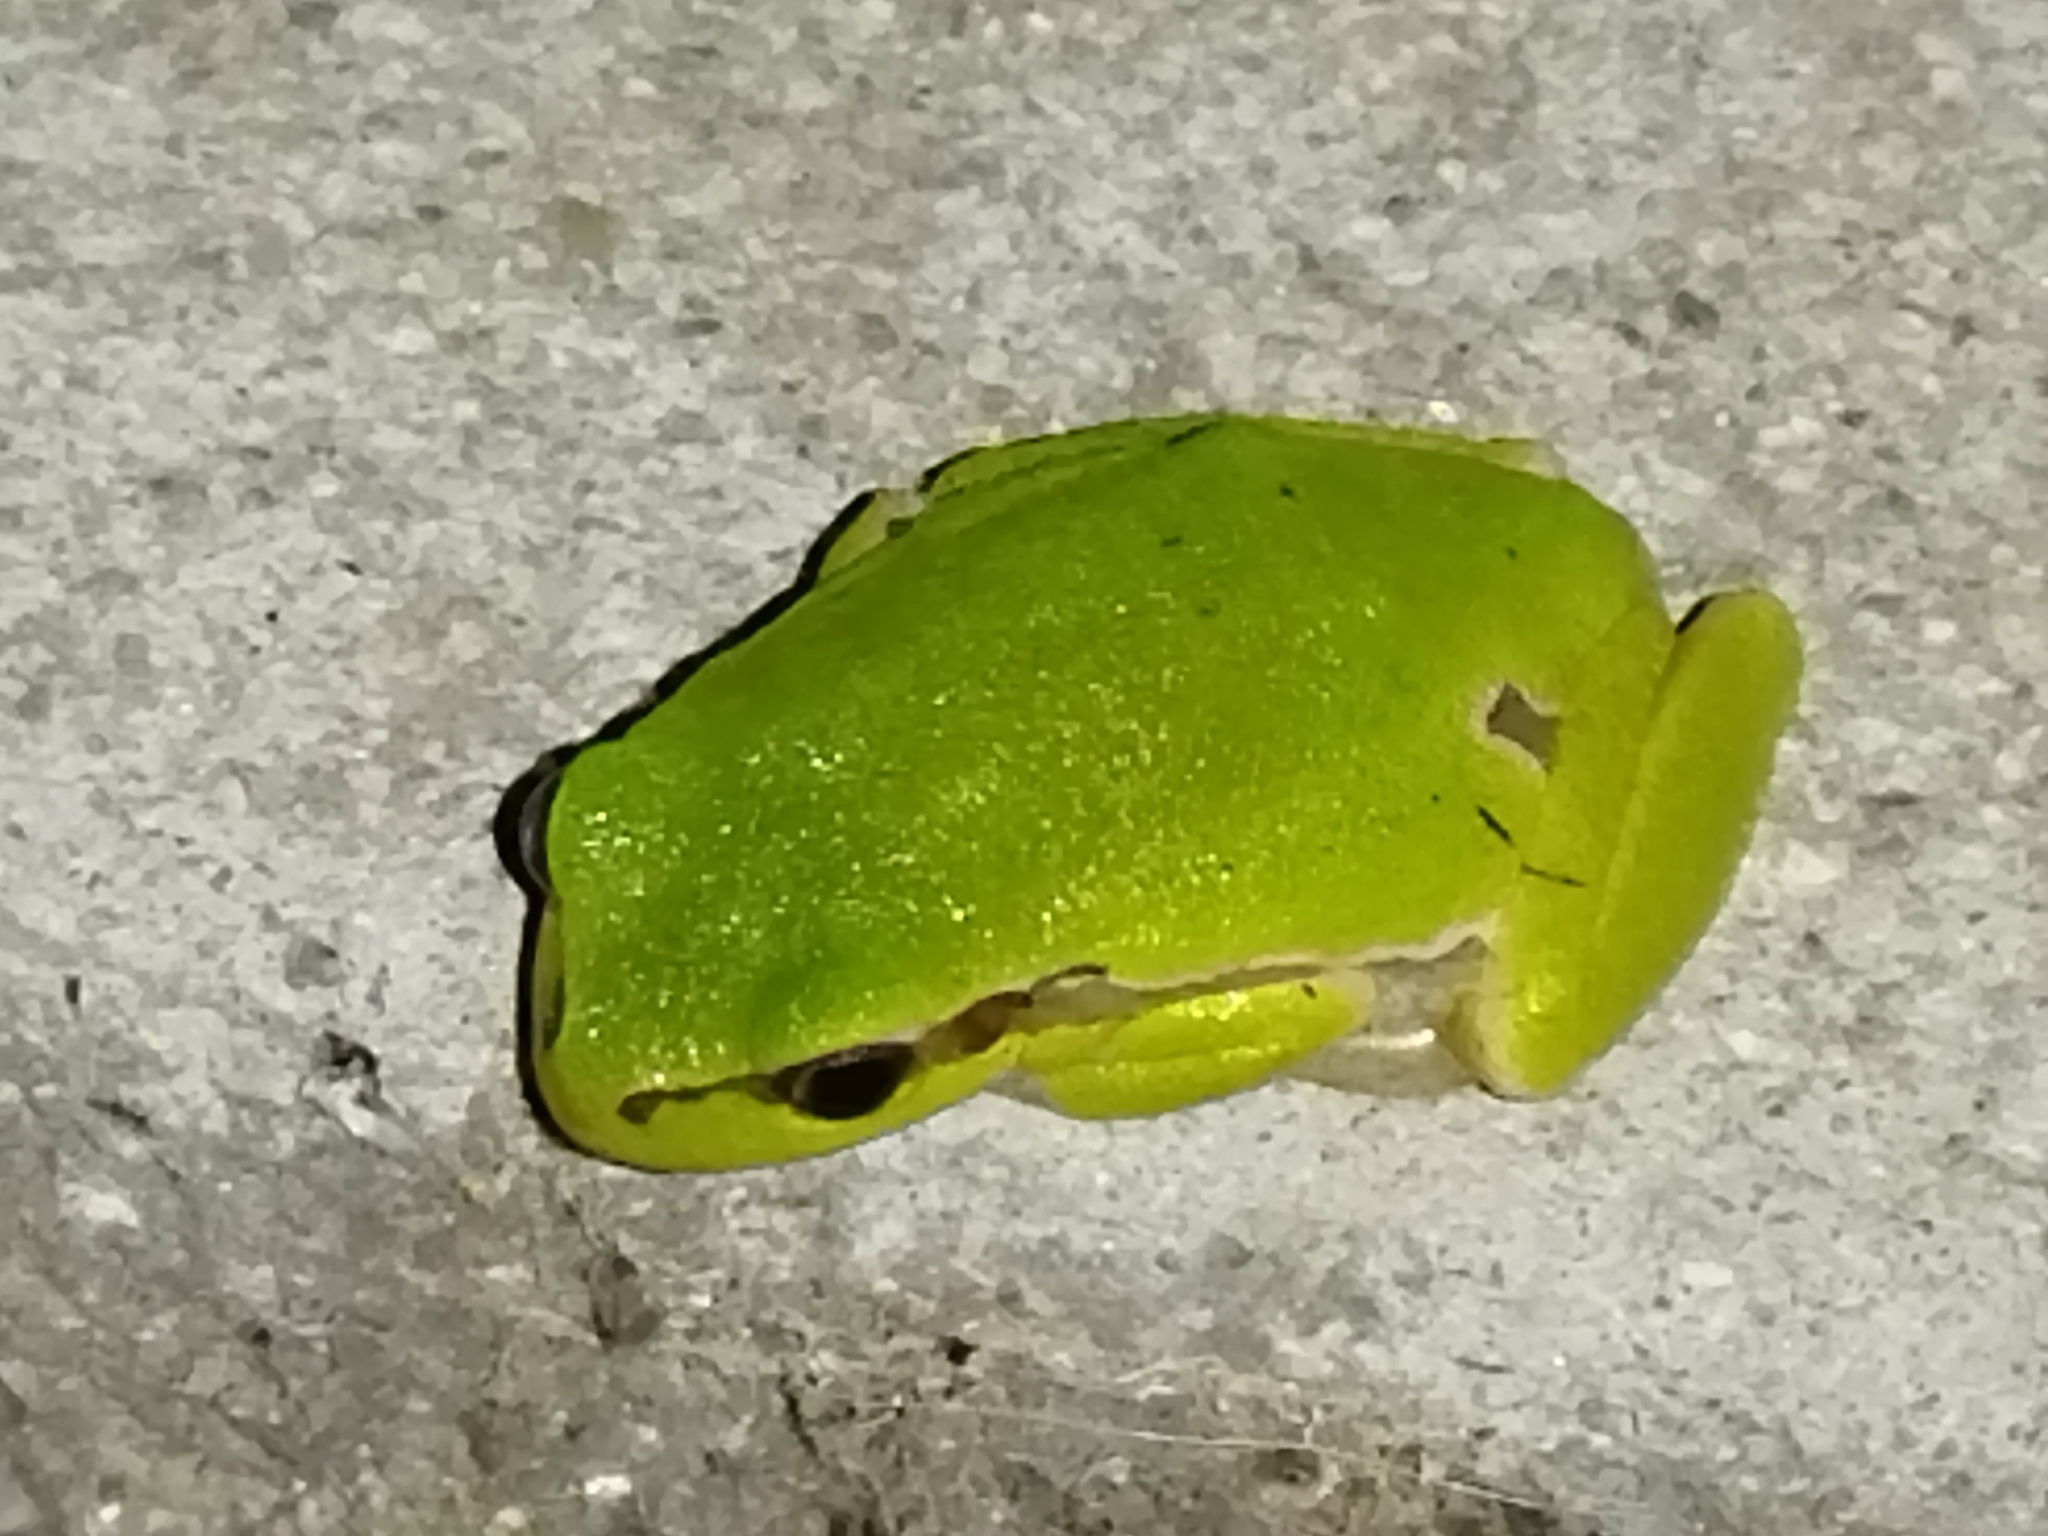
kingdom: Animalia
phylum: Chordata
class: Amphibia
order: Anura
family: Hylidae
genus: Hyla
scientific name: Hyla orientalis
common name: Caucasian treefrog
